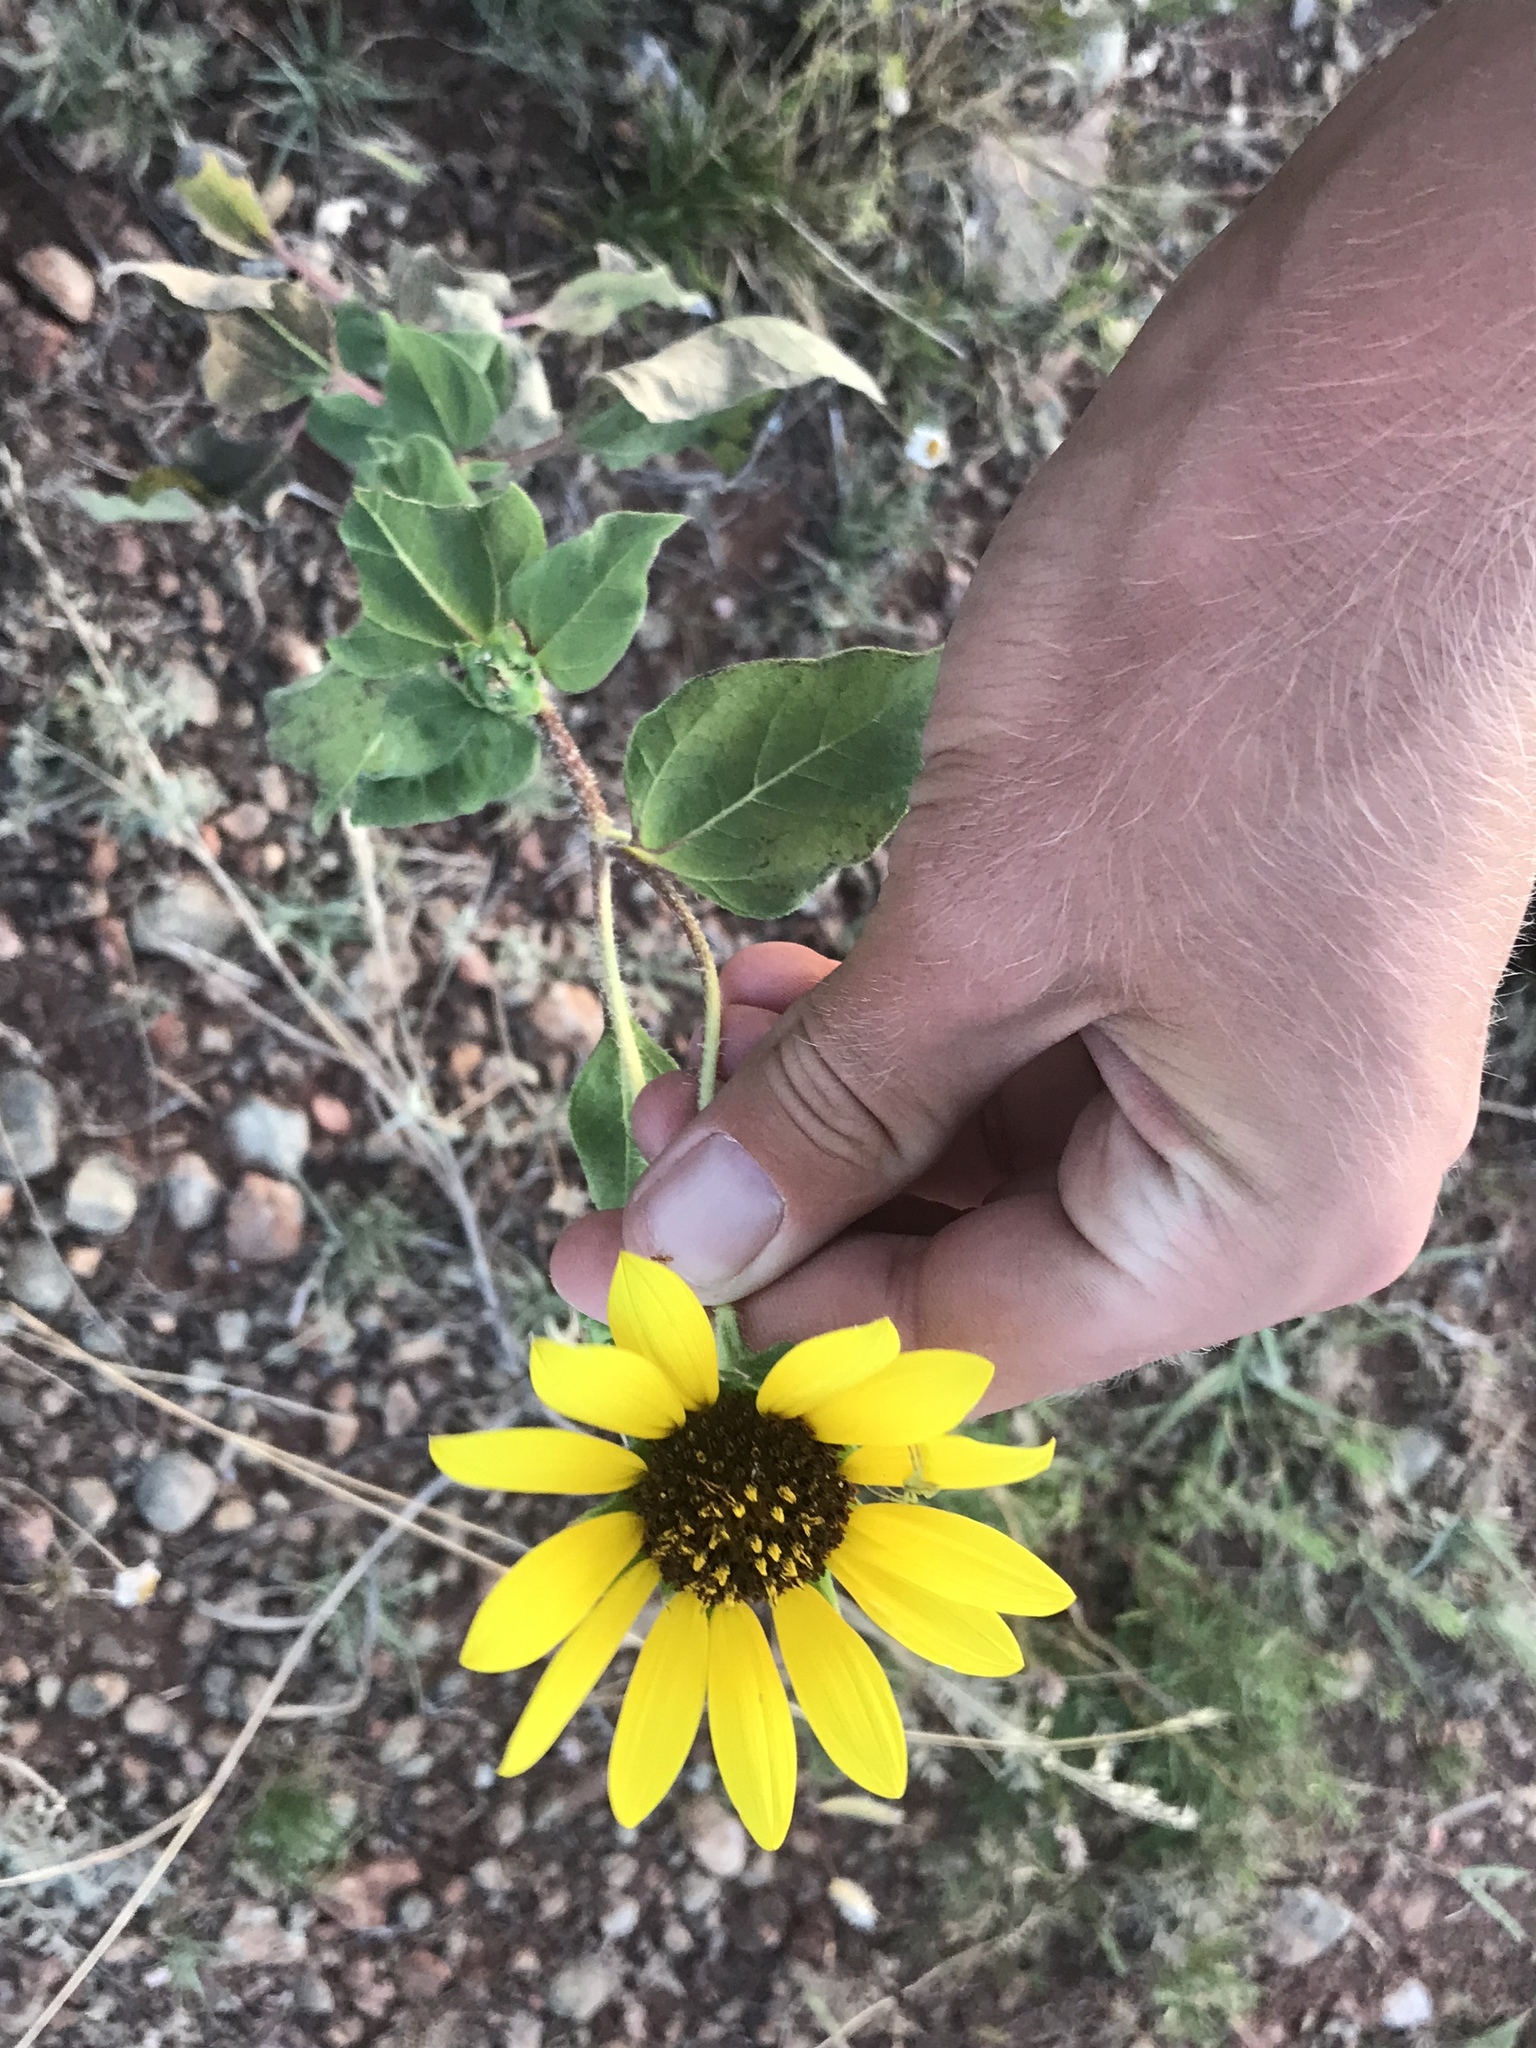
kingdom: Plantae
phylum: Tracheophyta
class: Magnoliopsida
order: Asterales
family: Asteraceae
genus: Helianthus
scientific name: Helianthus annuus
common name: Sunflower
